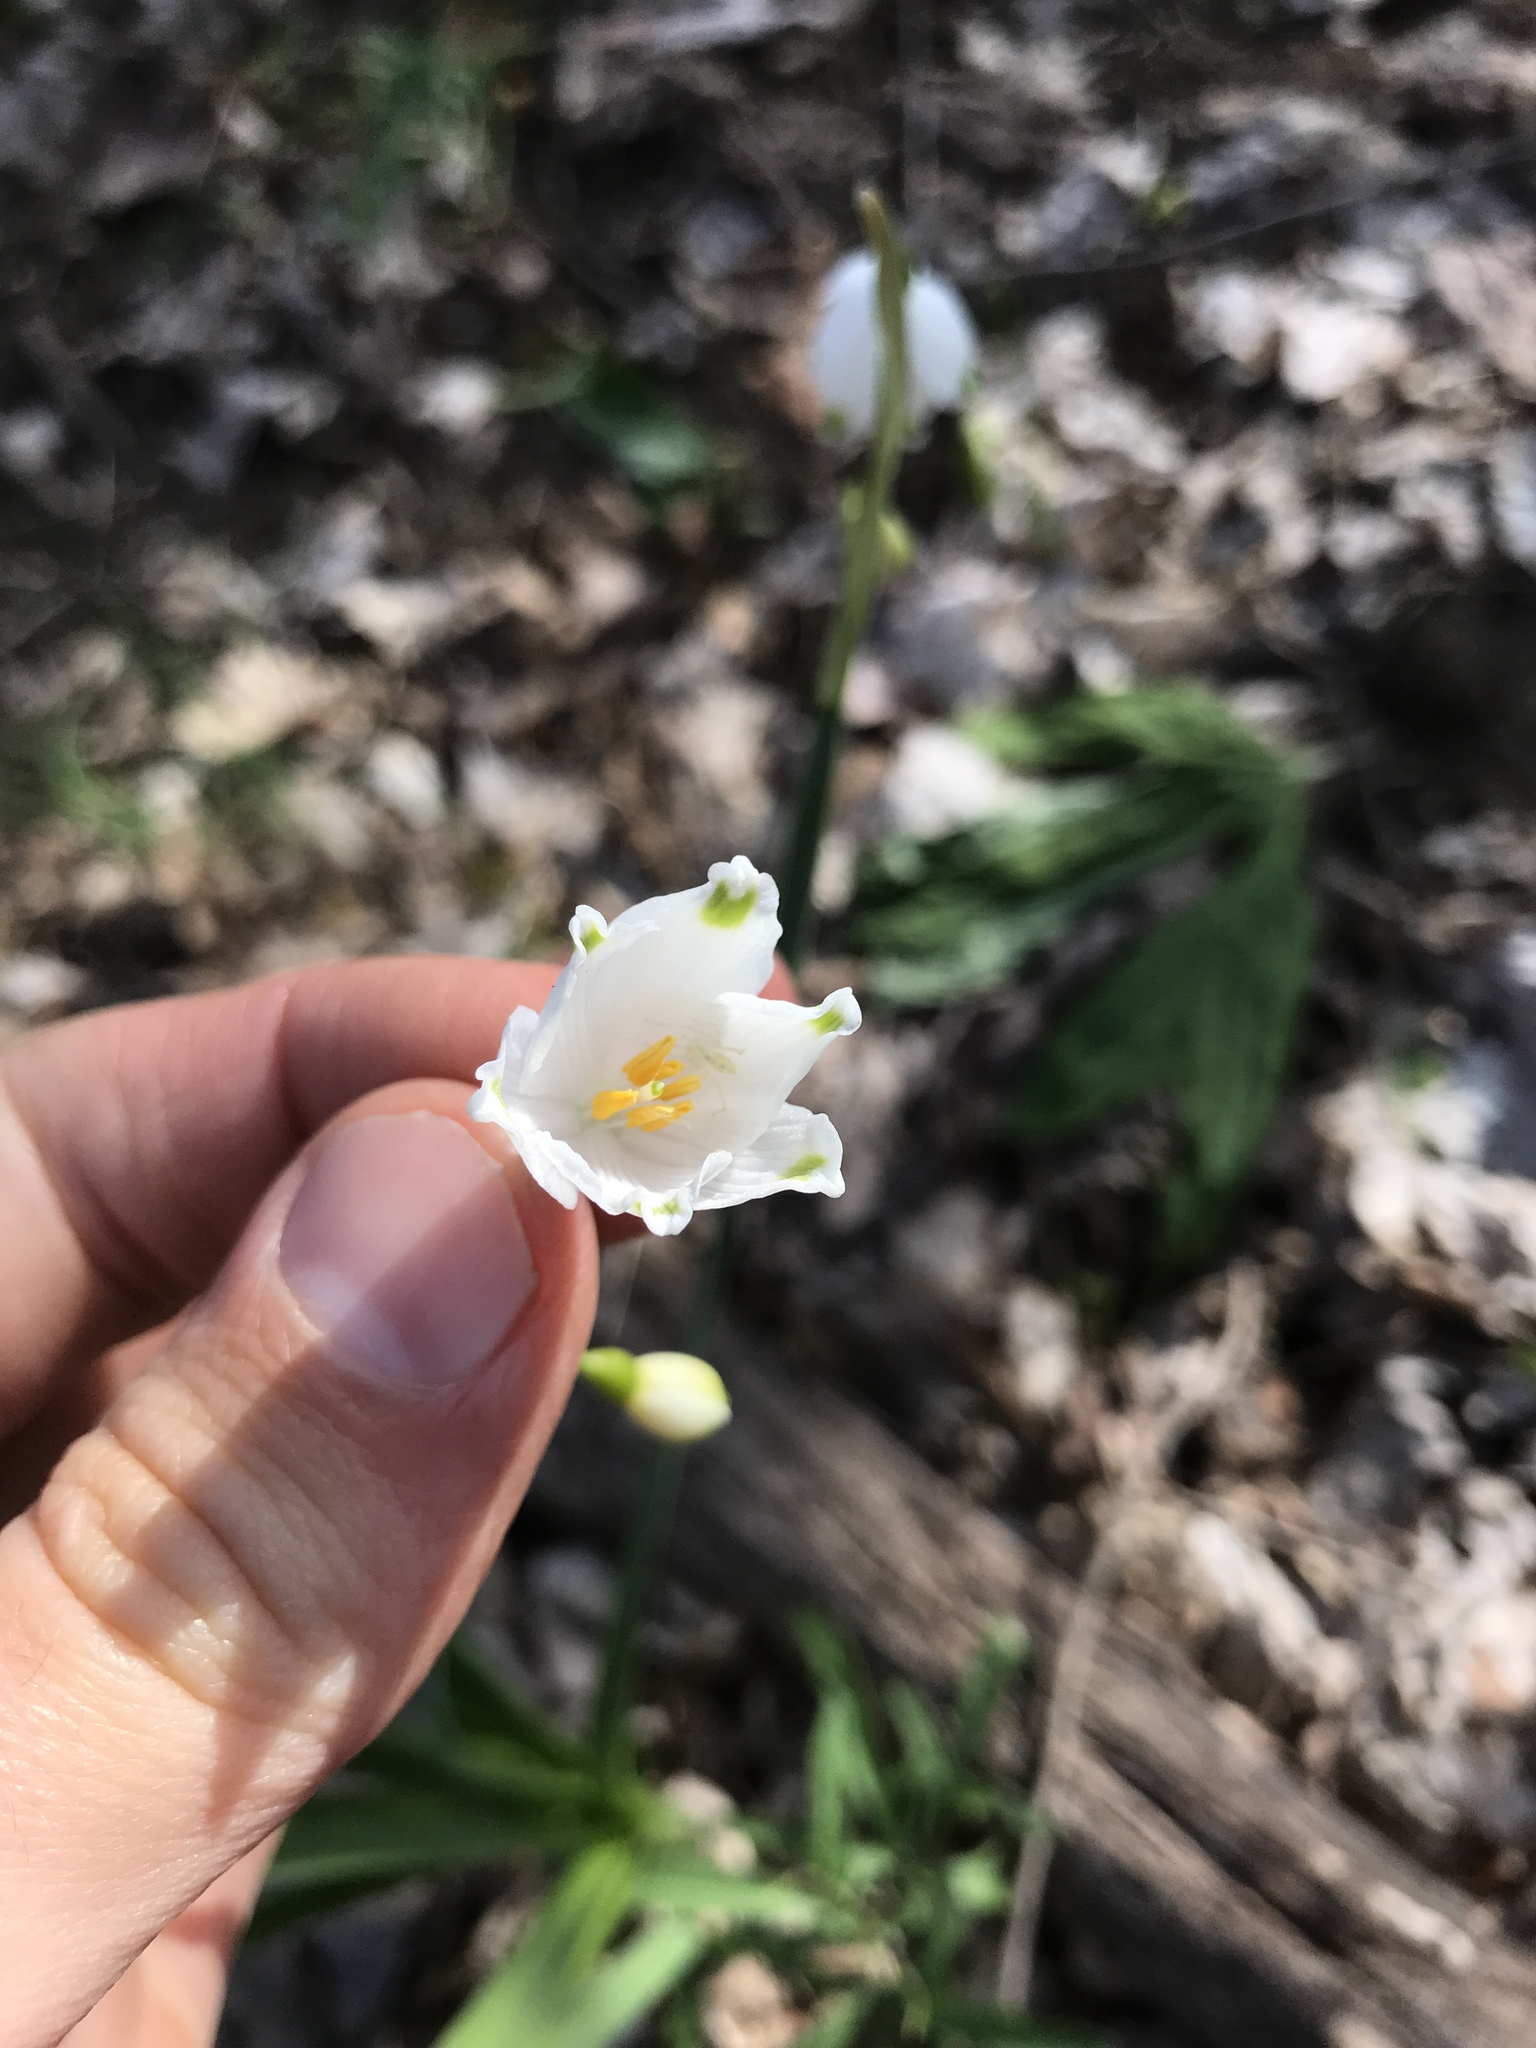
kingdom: Plantae
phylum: Tracheophyta
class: Liliopsida
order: Asparagales
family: Amaryllidaceae
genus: Leucojum
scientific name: Leucojum aestivum
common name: Summer snowflake
